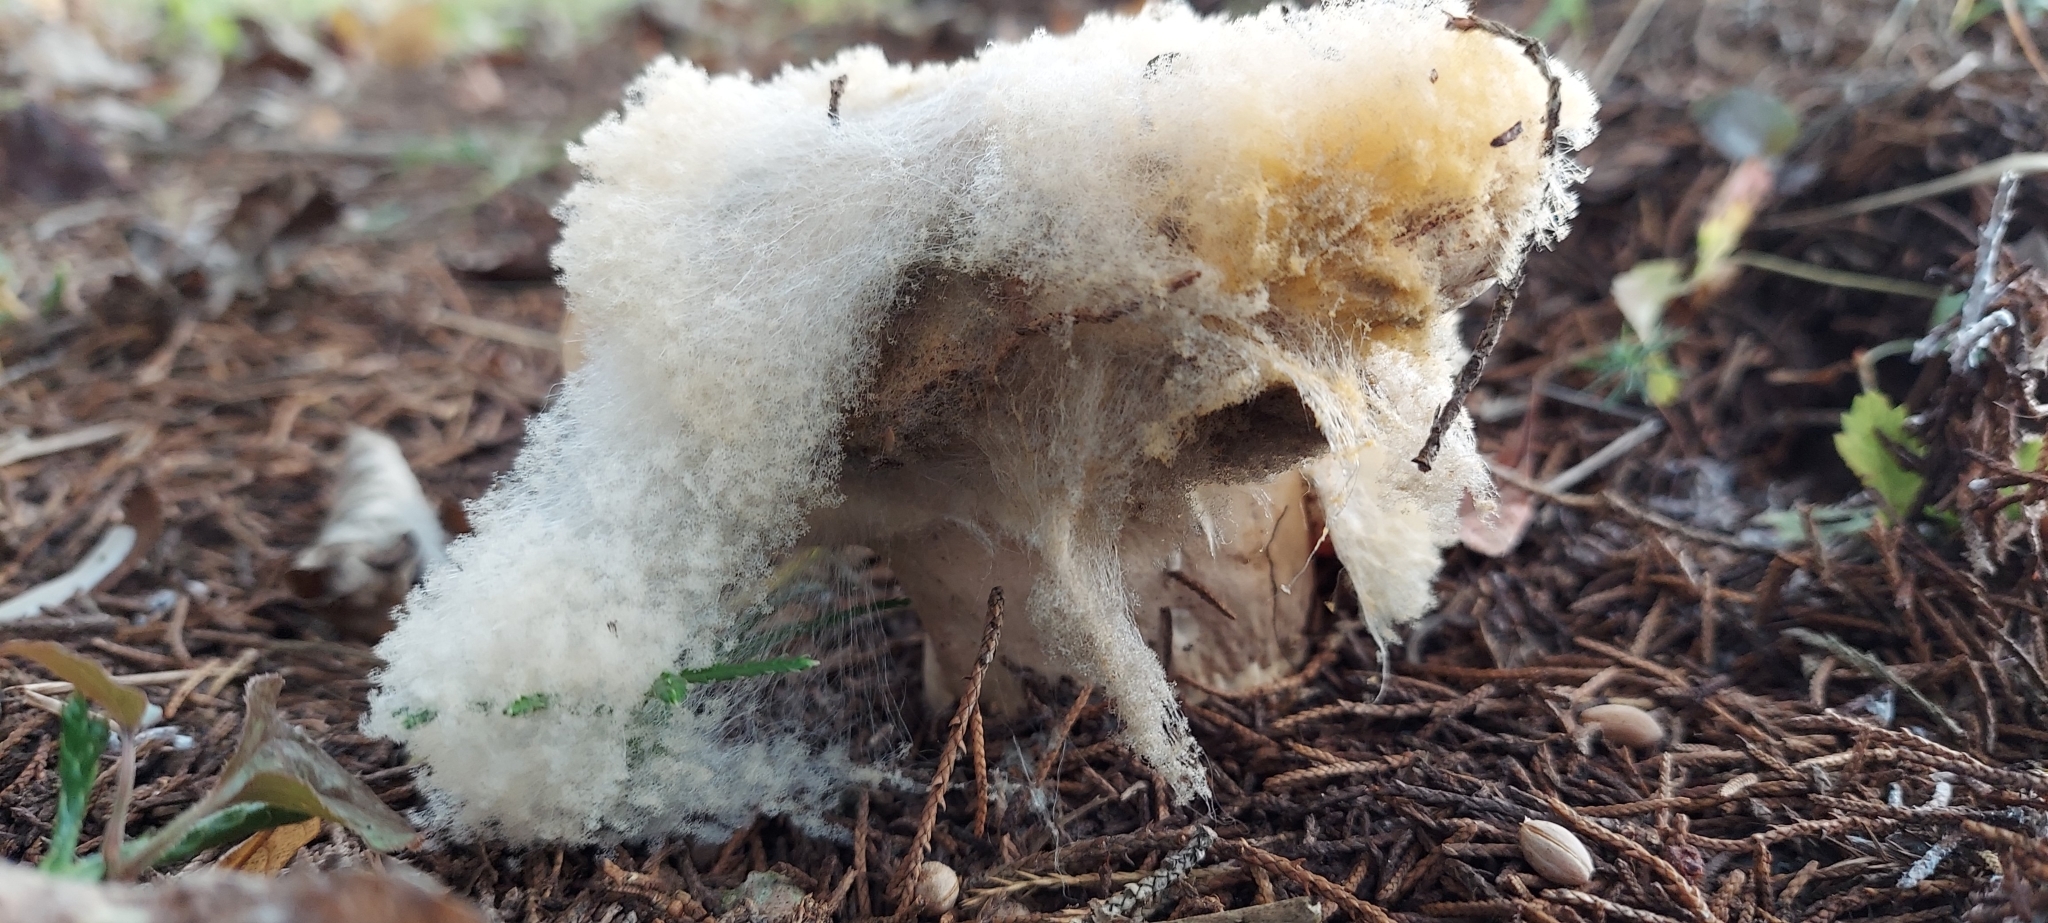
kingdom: Fungi
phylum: Mucoromycota
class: Mucoromycetes
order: Mucorales
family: Rhizopodaceae
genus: Syzygites
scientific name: Syzygites megalocarpus
